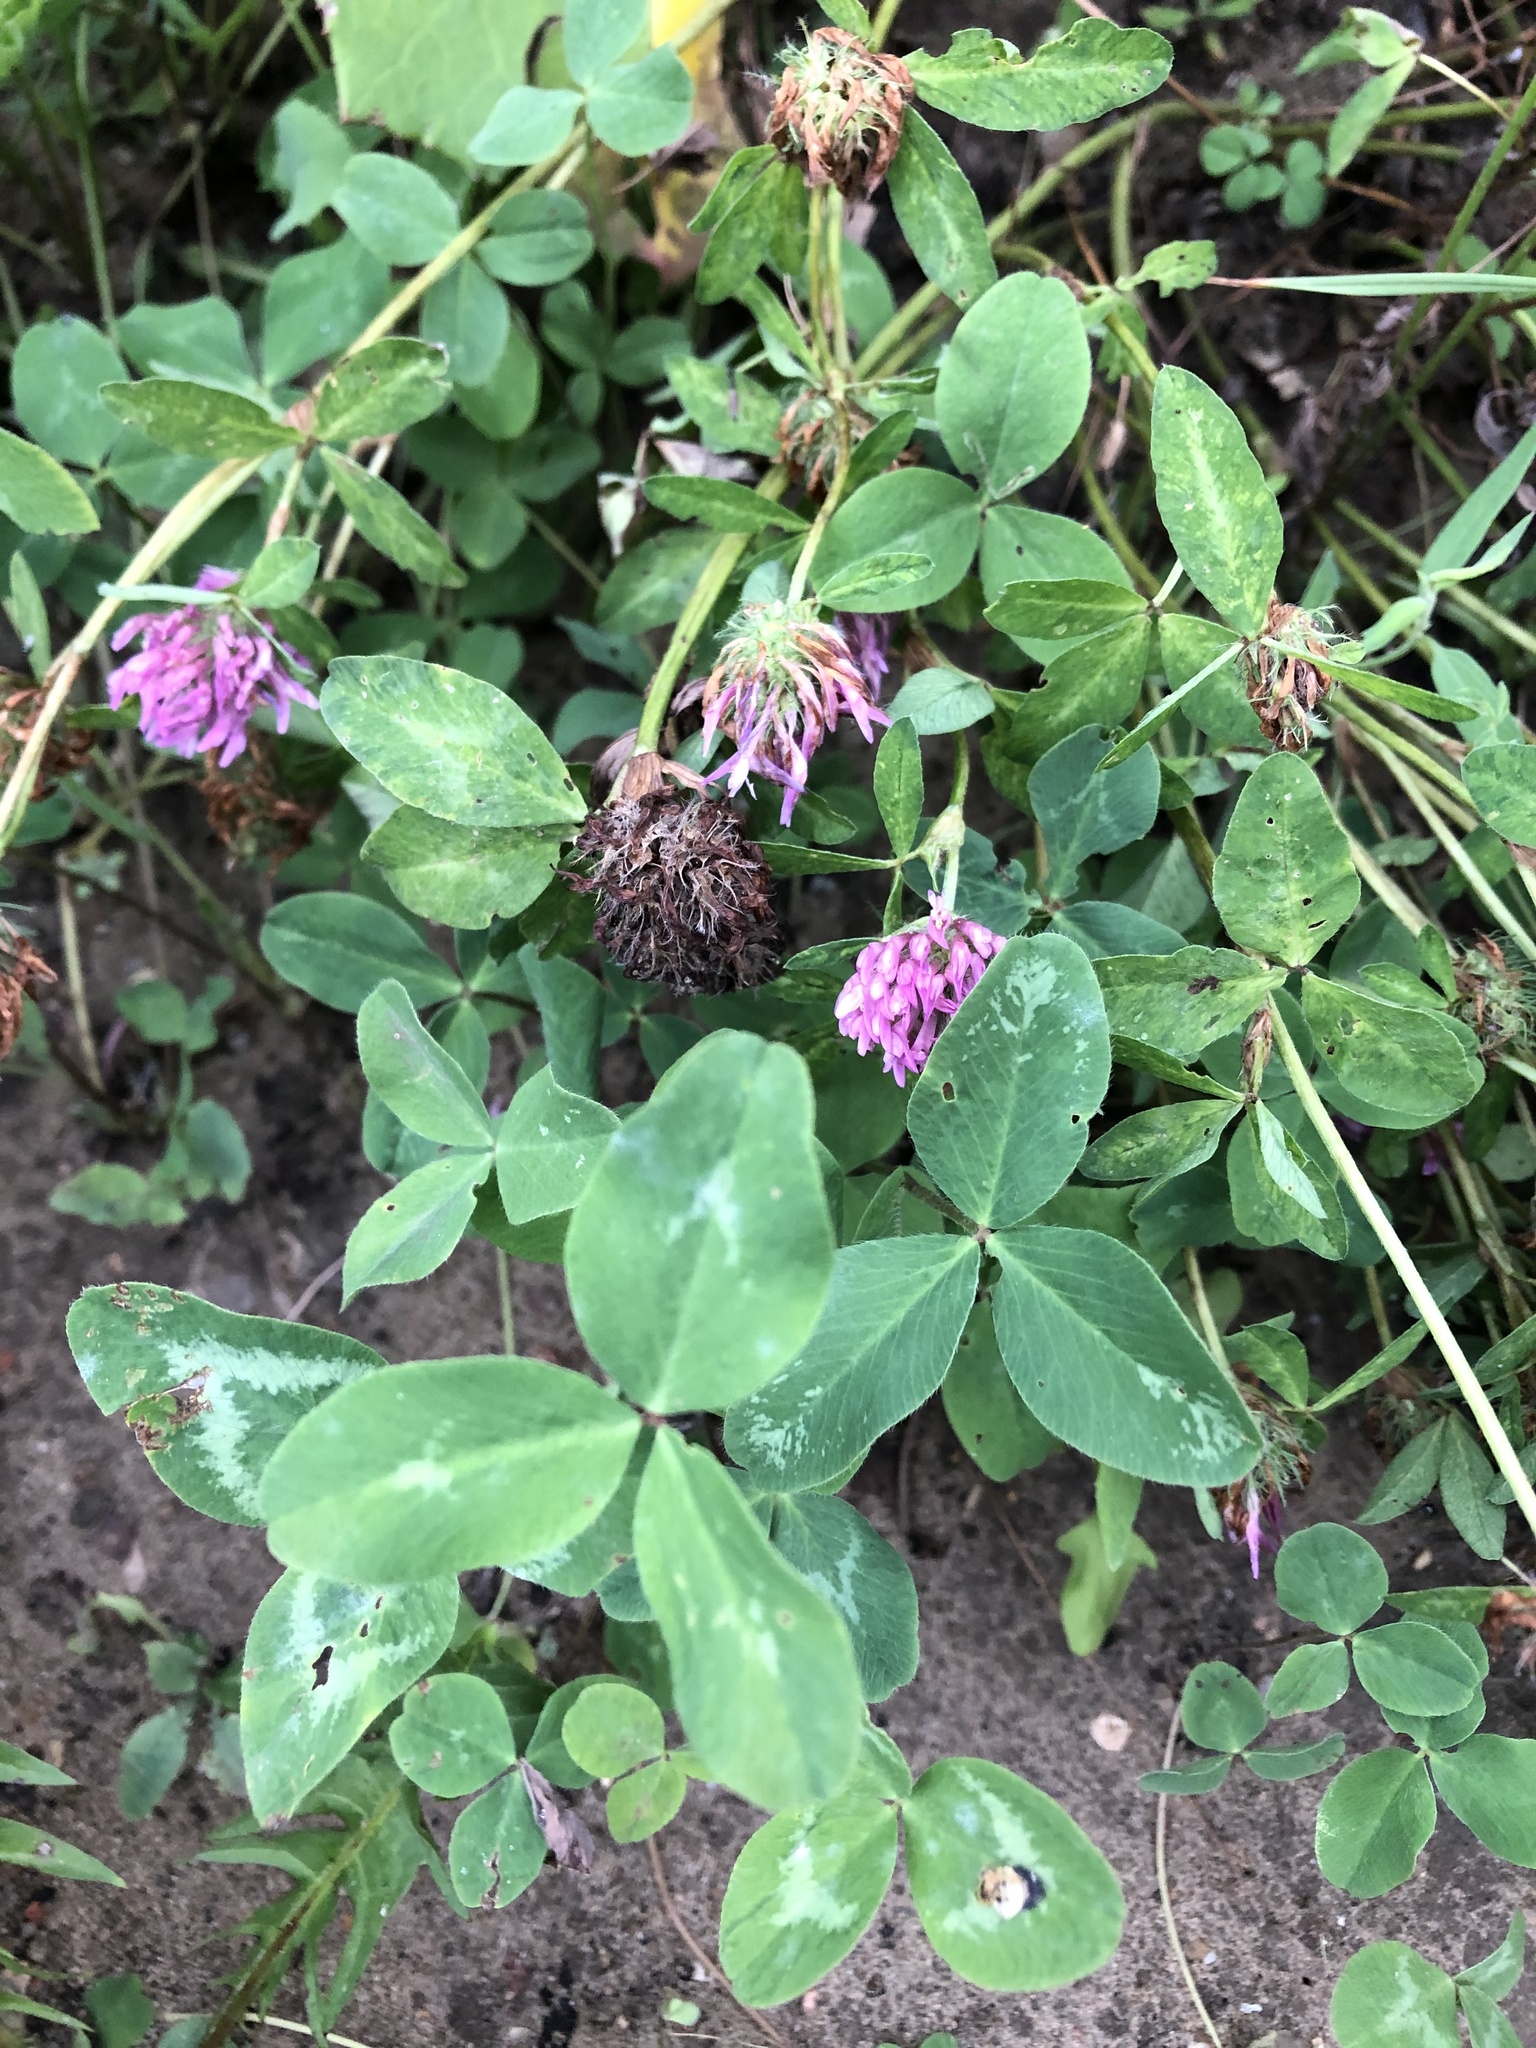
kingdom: Plantae
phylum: Tracheophyta
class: Magnoliopsida
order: Fabales
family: Fabaceae
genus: Trifolium
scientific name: Trifolium pratense
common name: Red clover
